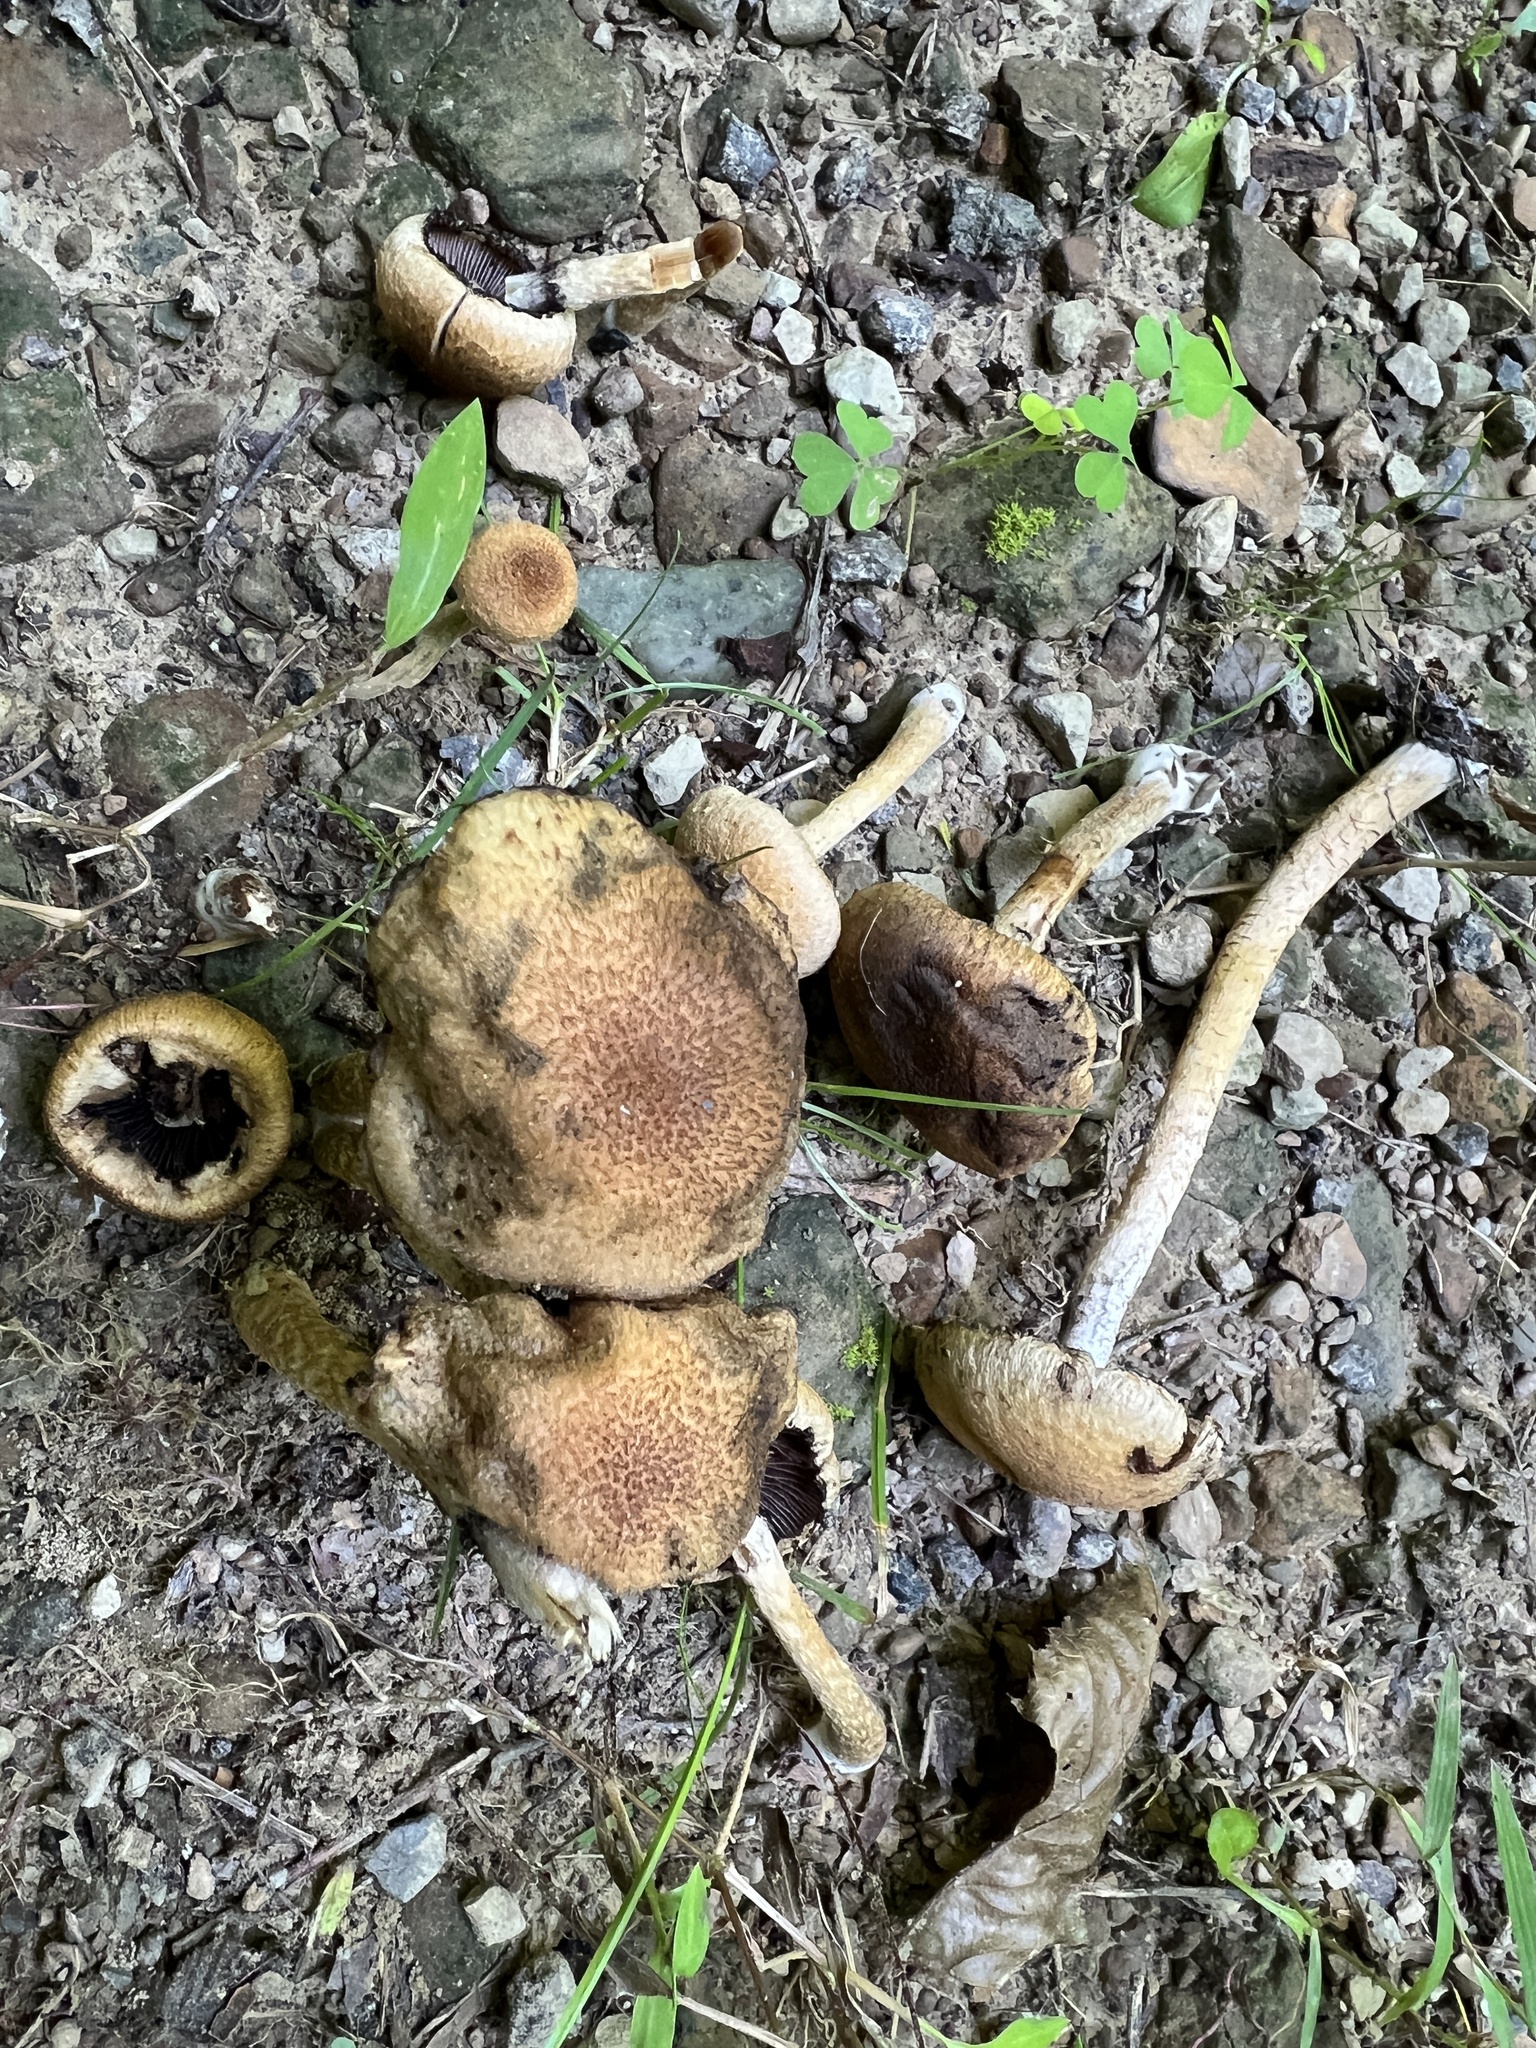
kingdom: Fungi
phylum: Basidiomycota
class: Agaricomycetes
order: Agaricales
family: Psathyrellaceae
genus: Lacrymaria
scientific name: Lacrymaria lacrymabunda
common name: Weeping widow
